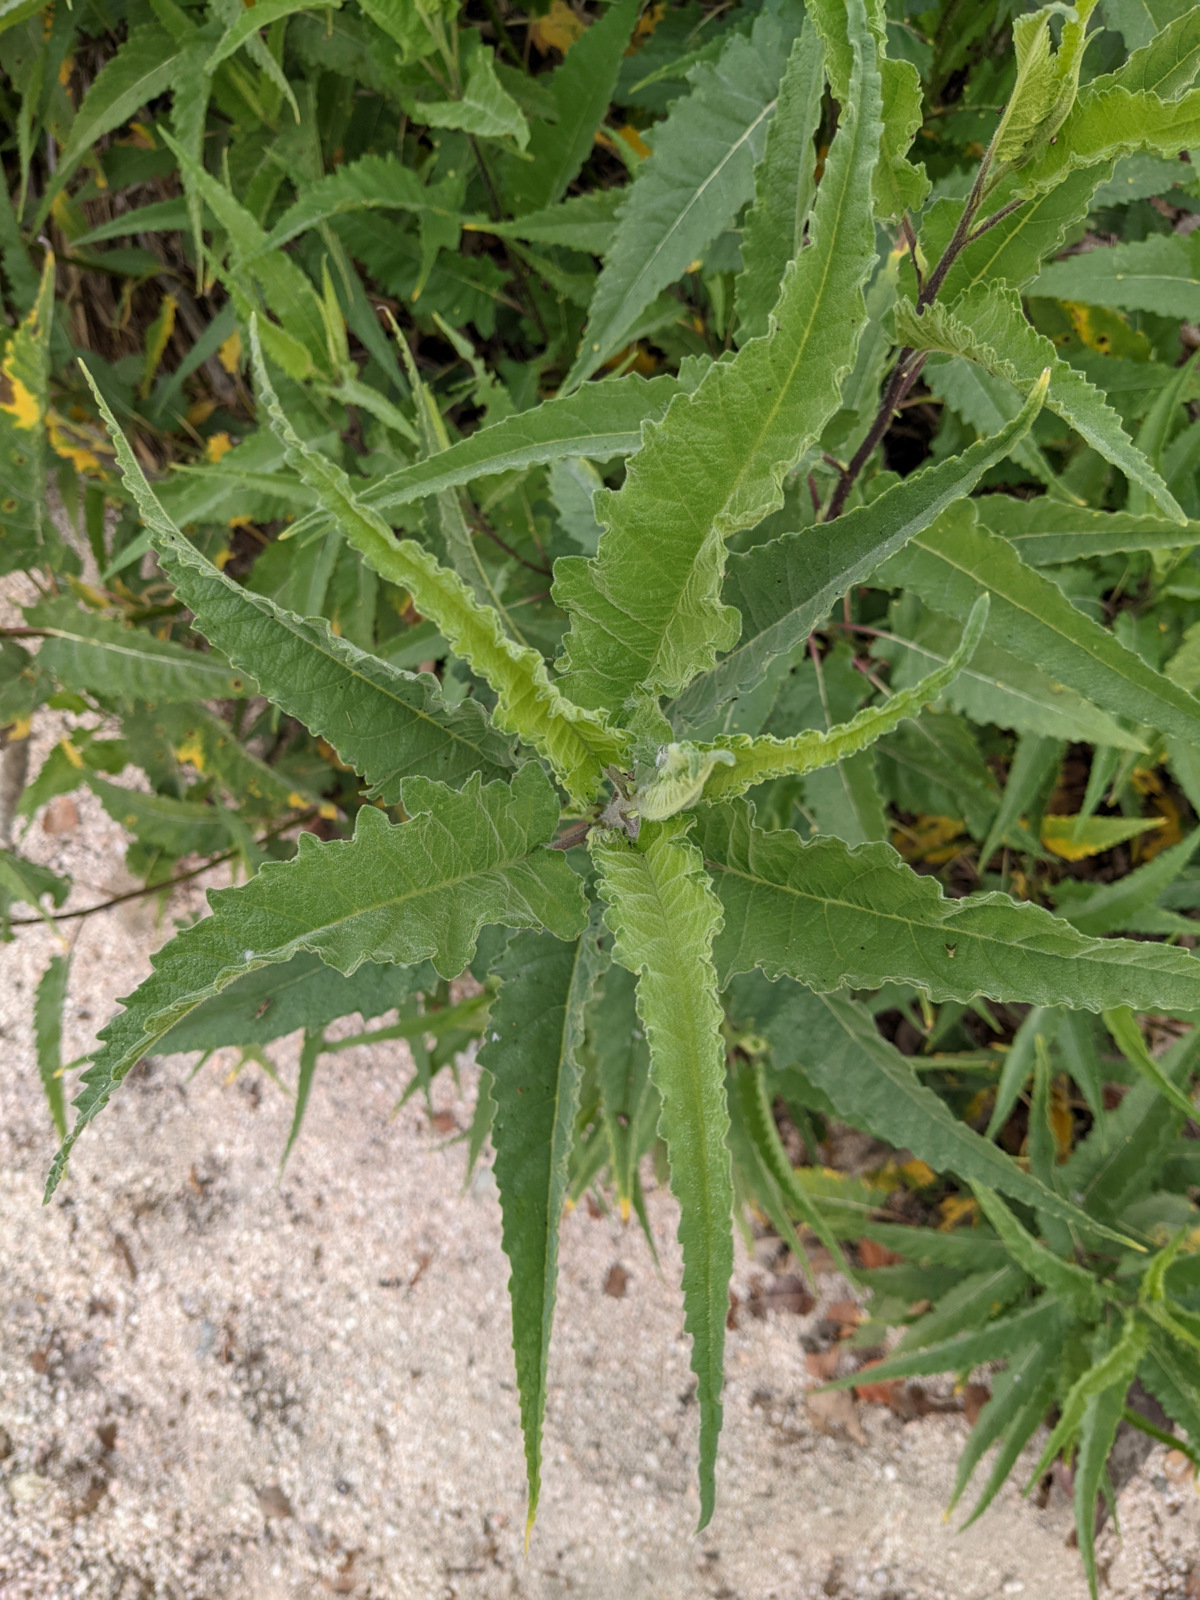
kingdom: Plantae
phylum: Tracheophyta
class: Magnoliopsida
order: Asterales
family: Asteraceae
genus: Ambrosia
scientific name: Ambrosia ambrosioides
